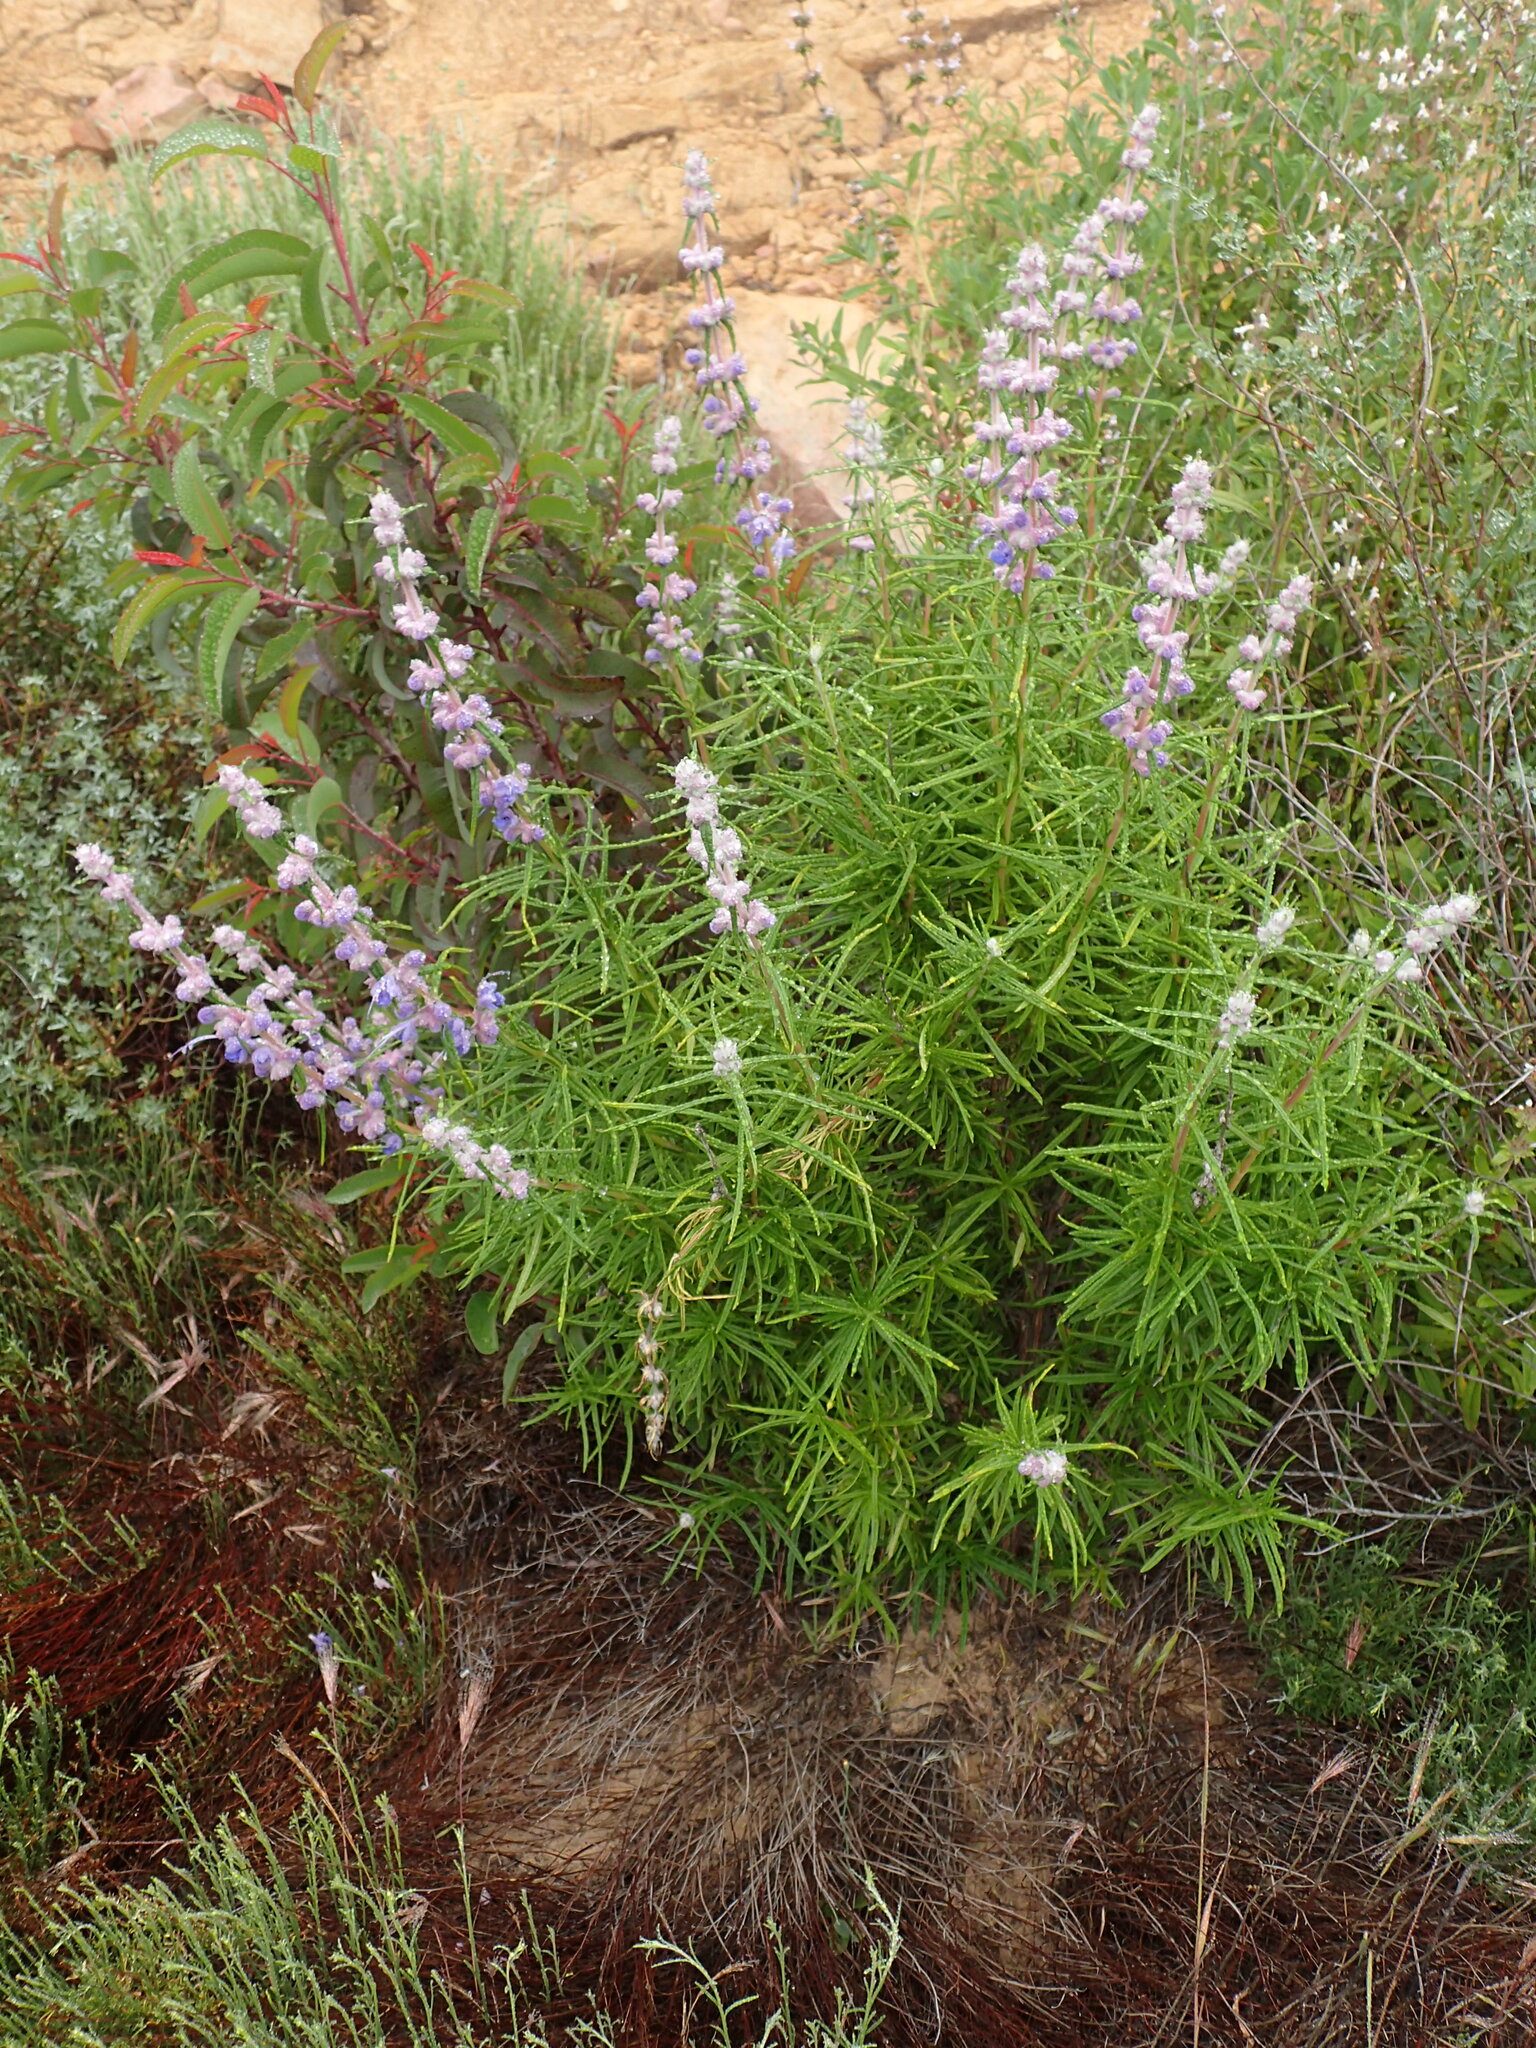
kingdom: Plantae
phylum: Tracheophyta
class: Magnoliopsida
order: Lamiales
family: Lamiaceae
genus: Trichostema
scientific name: Trichostema lanatum
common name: Woolly bluecurls
